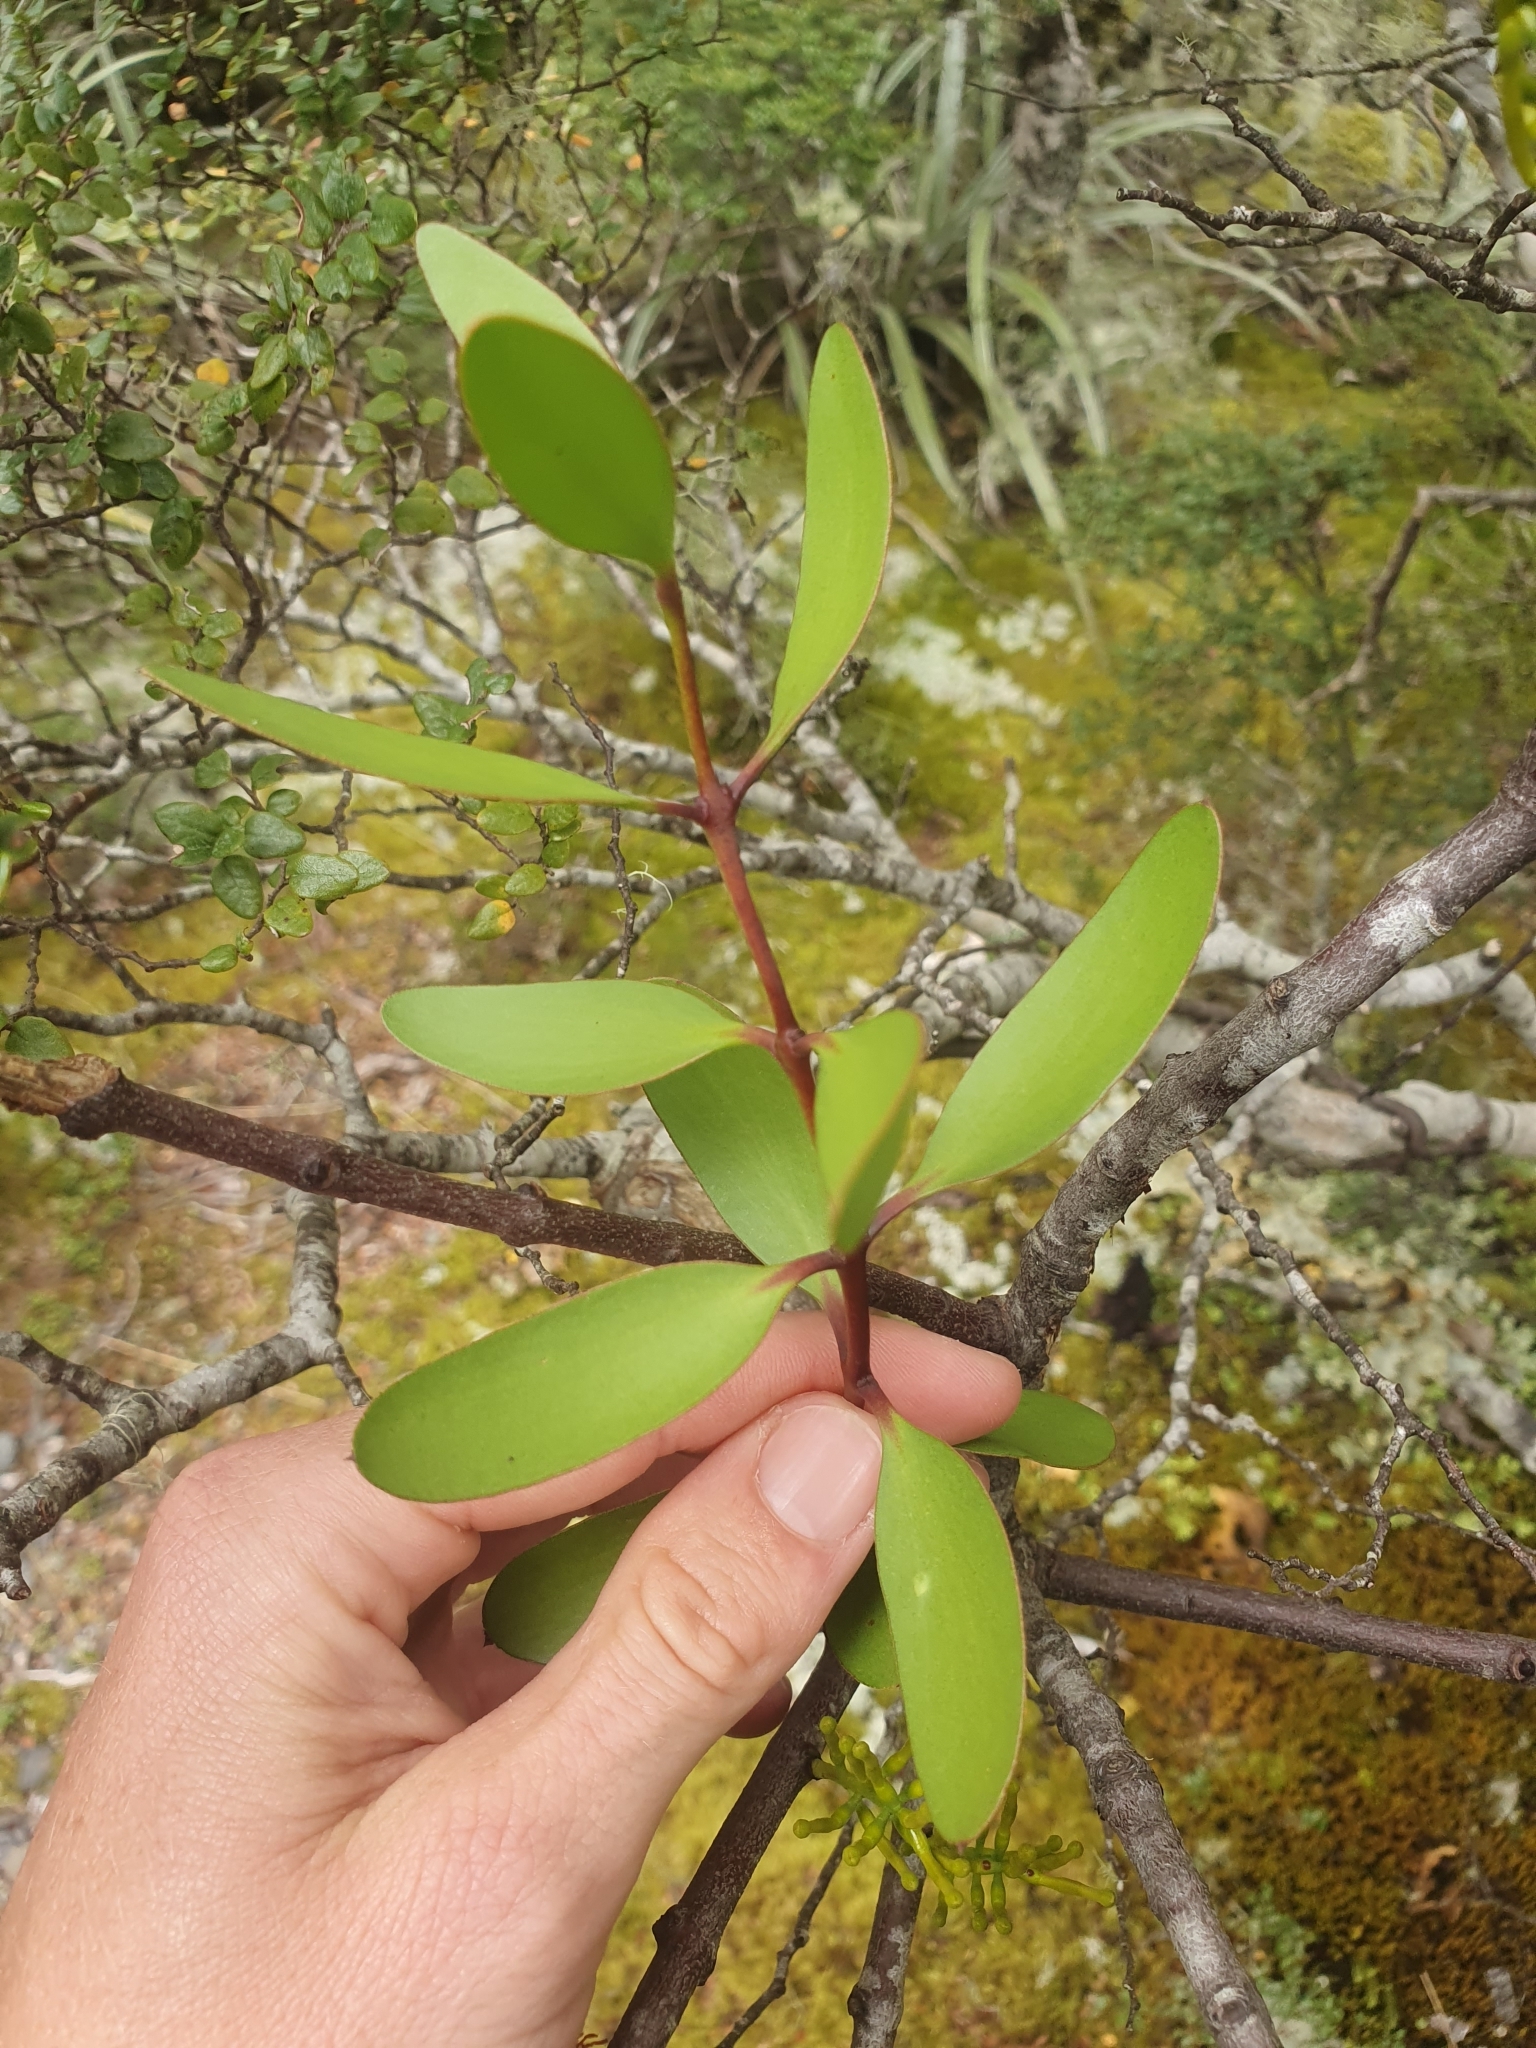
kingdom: Plantae
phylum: Tracheophyta
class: Magnoliopsida
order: Santalales
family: Loranthaceae
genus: Alepis
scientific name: Alepis flavida
